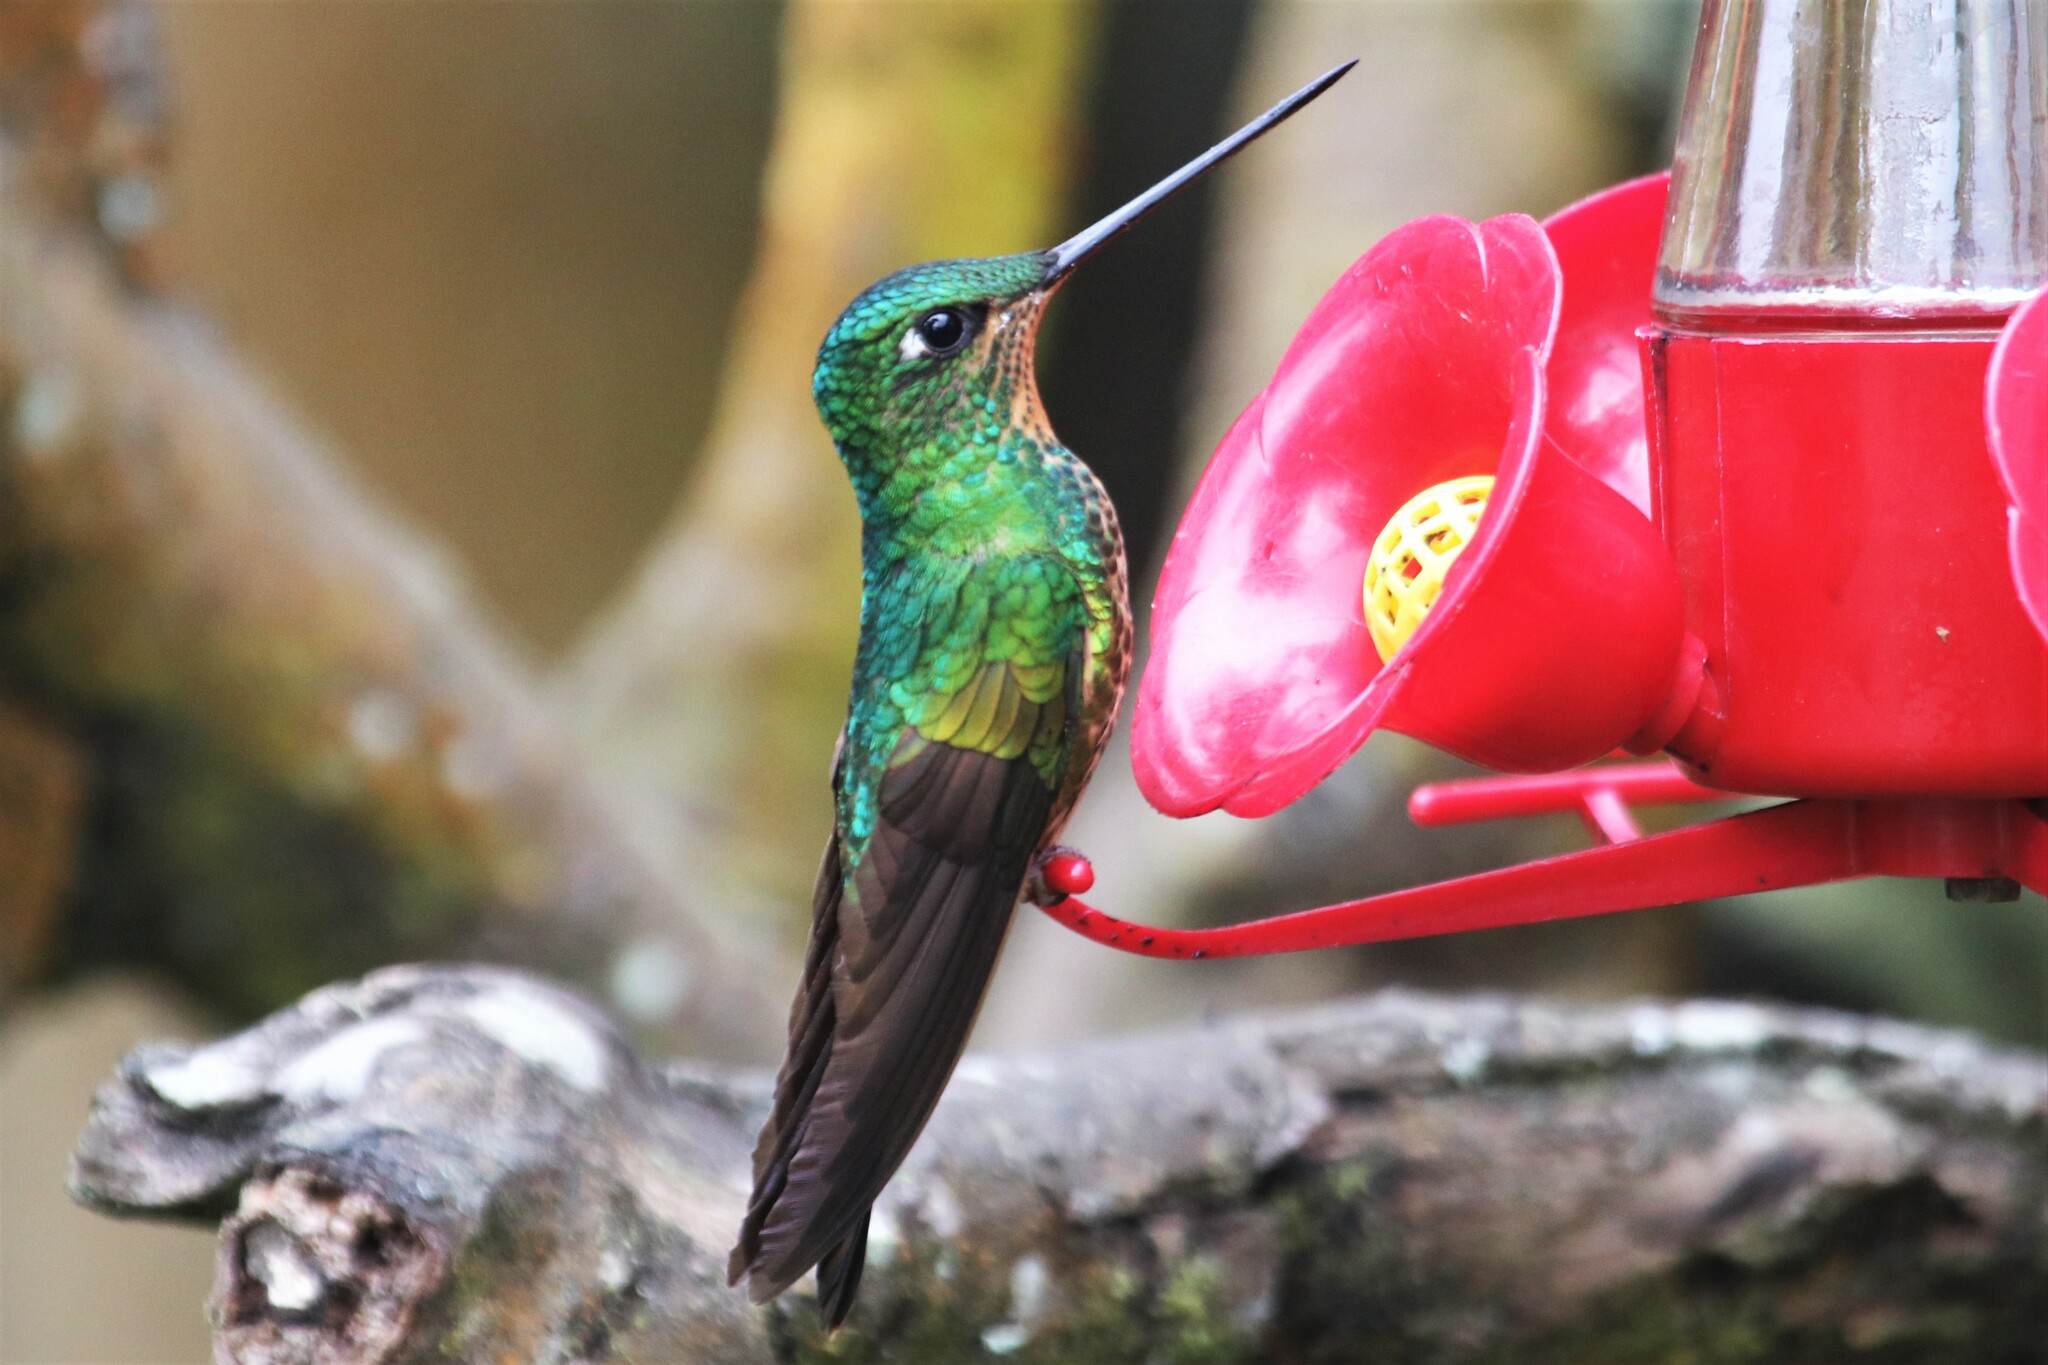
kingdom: Animalia
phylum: Chordata
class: Aves
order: Apodiformes
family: Trochilidae
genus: Coeligena
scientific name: Coeligena bonapartei
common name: Golden-bellied starfrontlet
